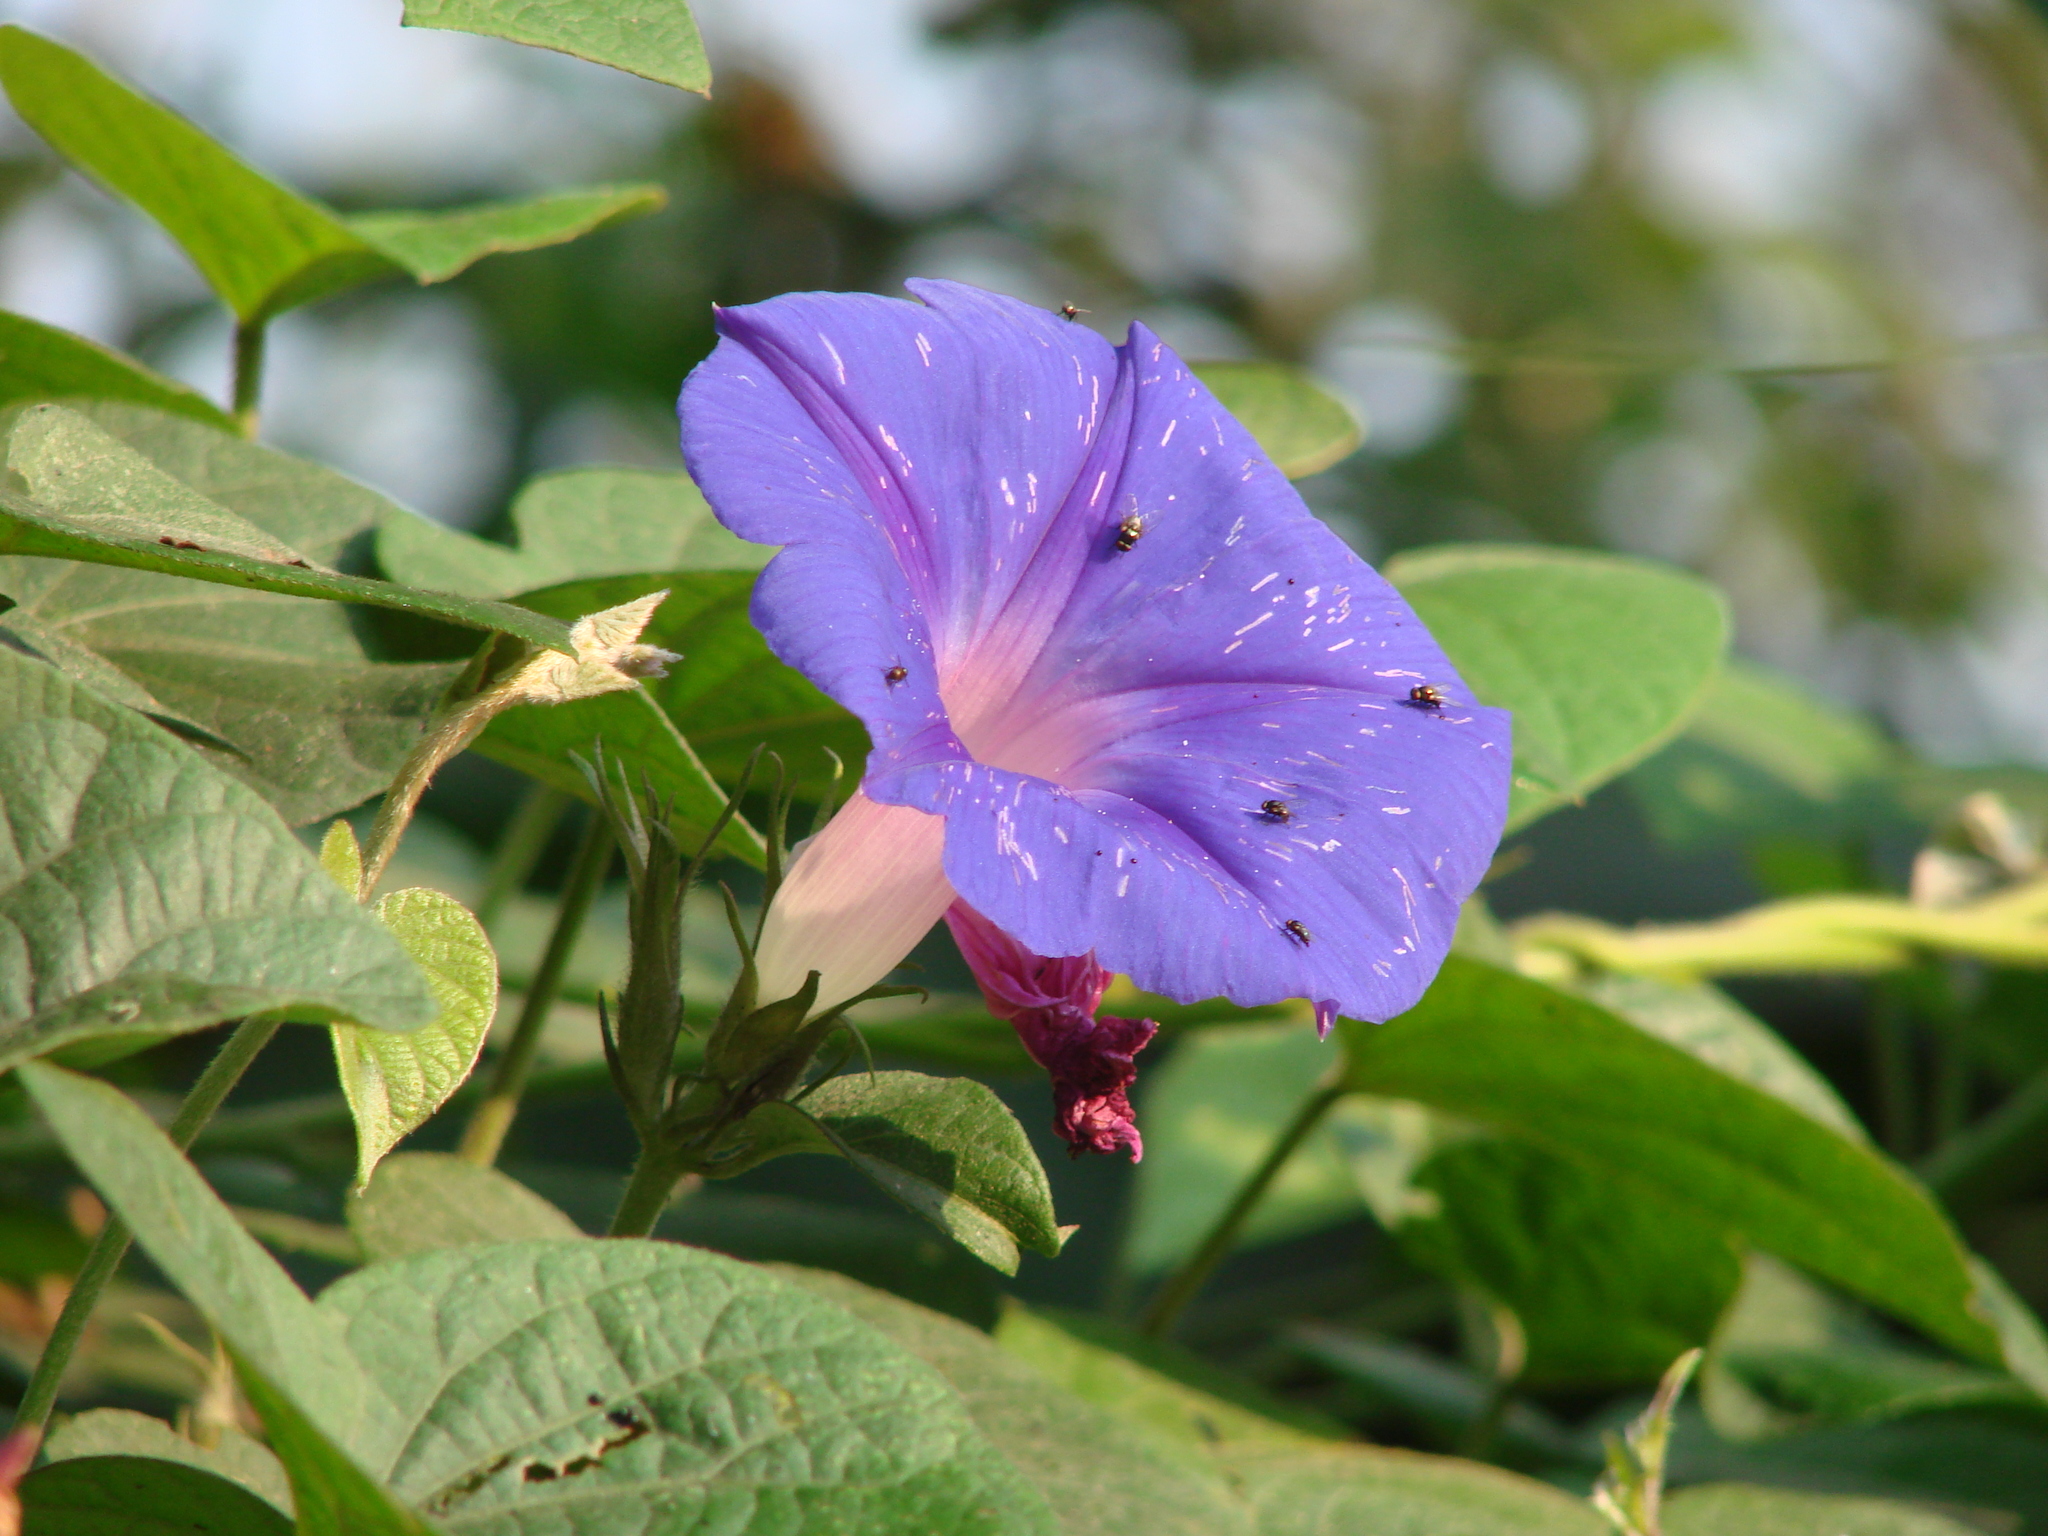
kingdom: Plantae
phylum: Tracheophyta
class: Magnoliopsida
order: Solanales
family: Convolvulaceae
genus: Ipomoea
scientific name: Ipomoea indica
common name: Blue dawnflower
